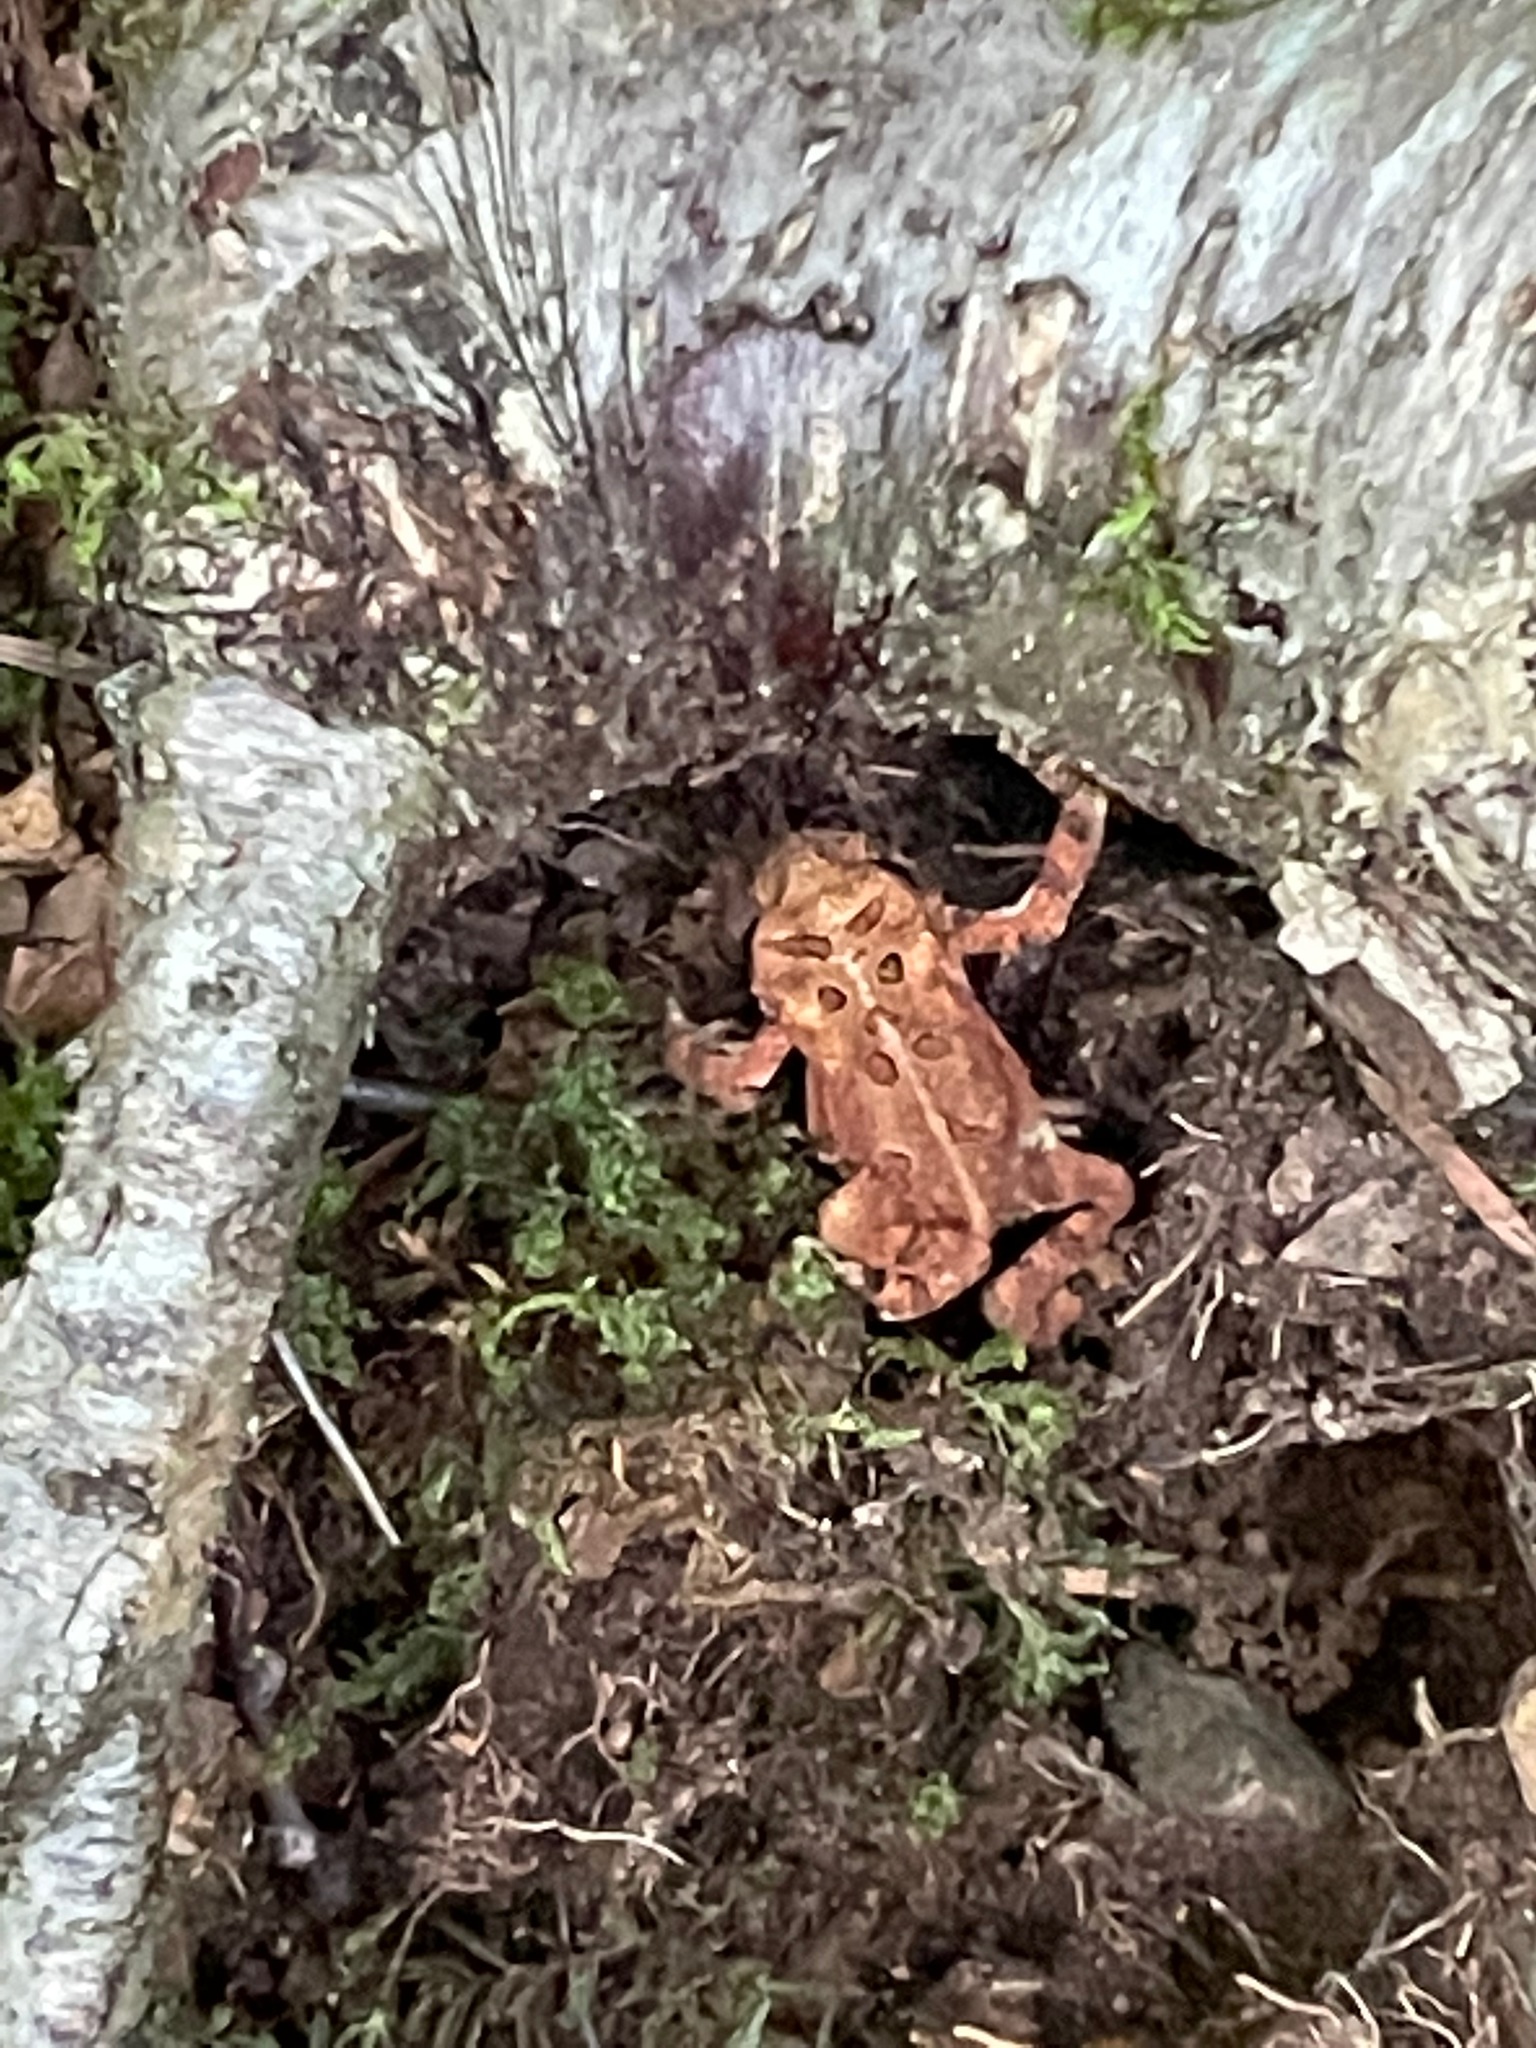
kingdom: Animalia
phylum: Chordata
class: Amphibia
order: Anura
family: Bufonidae
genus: Anaxyrus
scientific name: Anaxyrus americanus
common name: American toad
